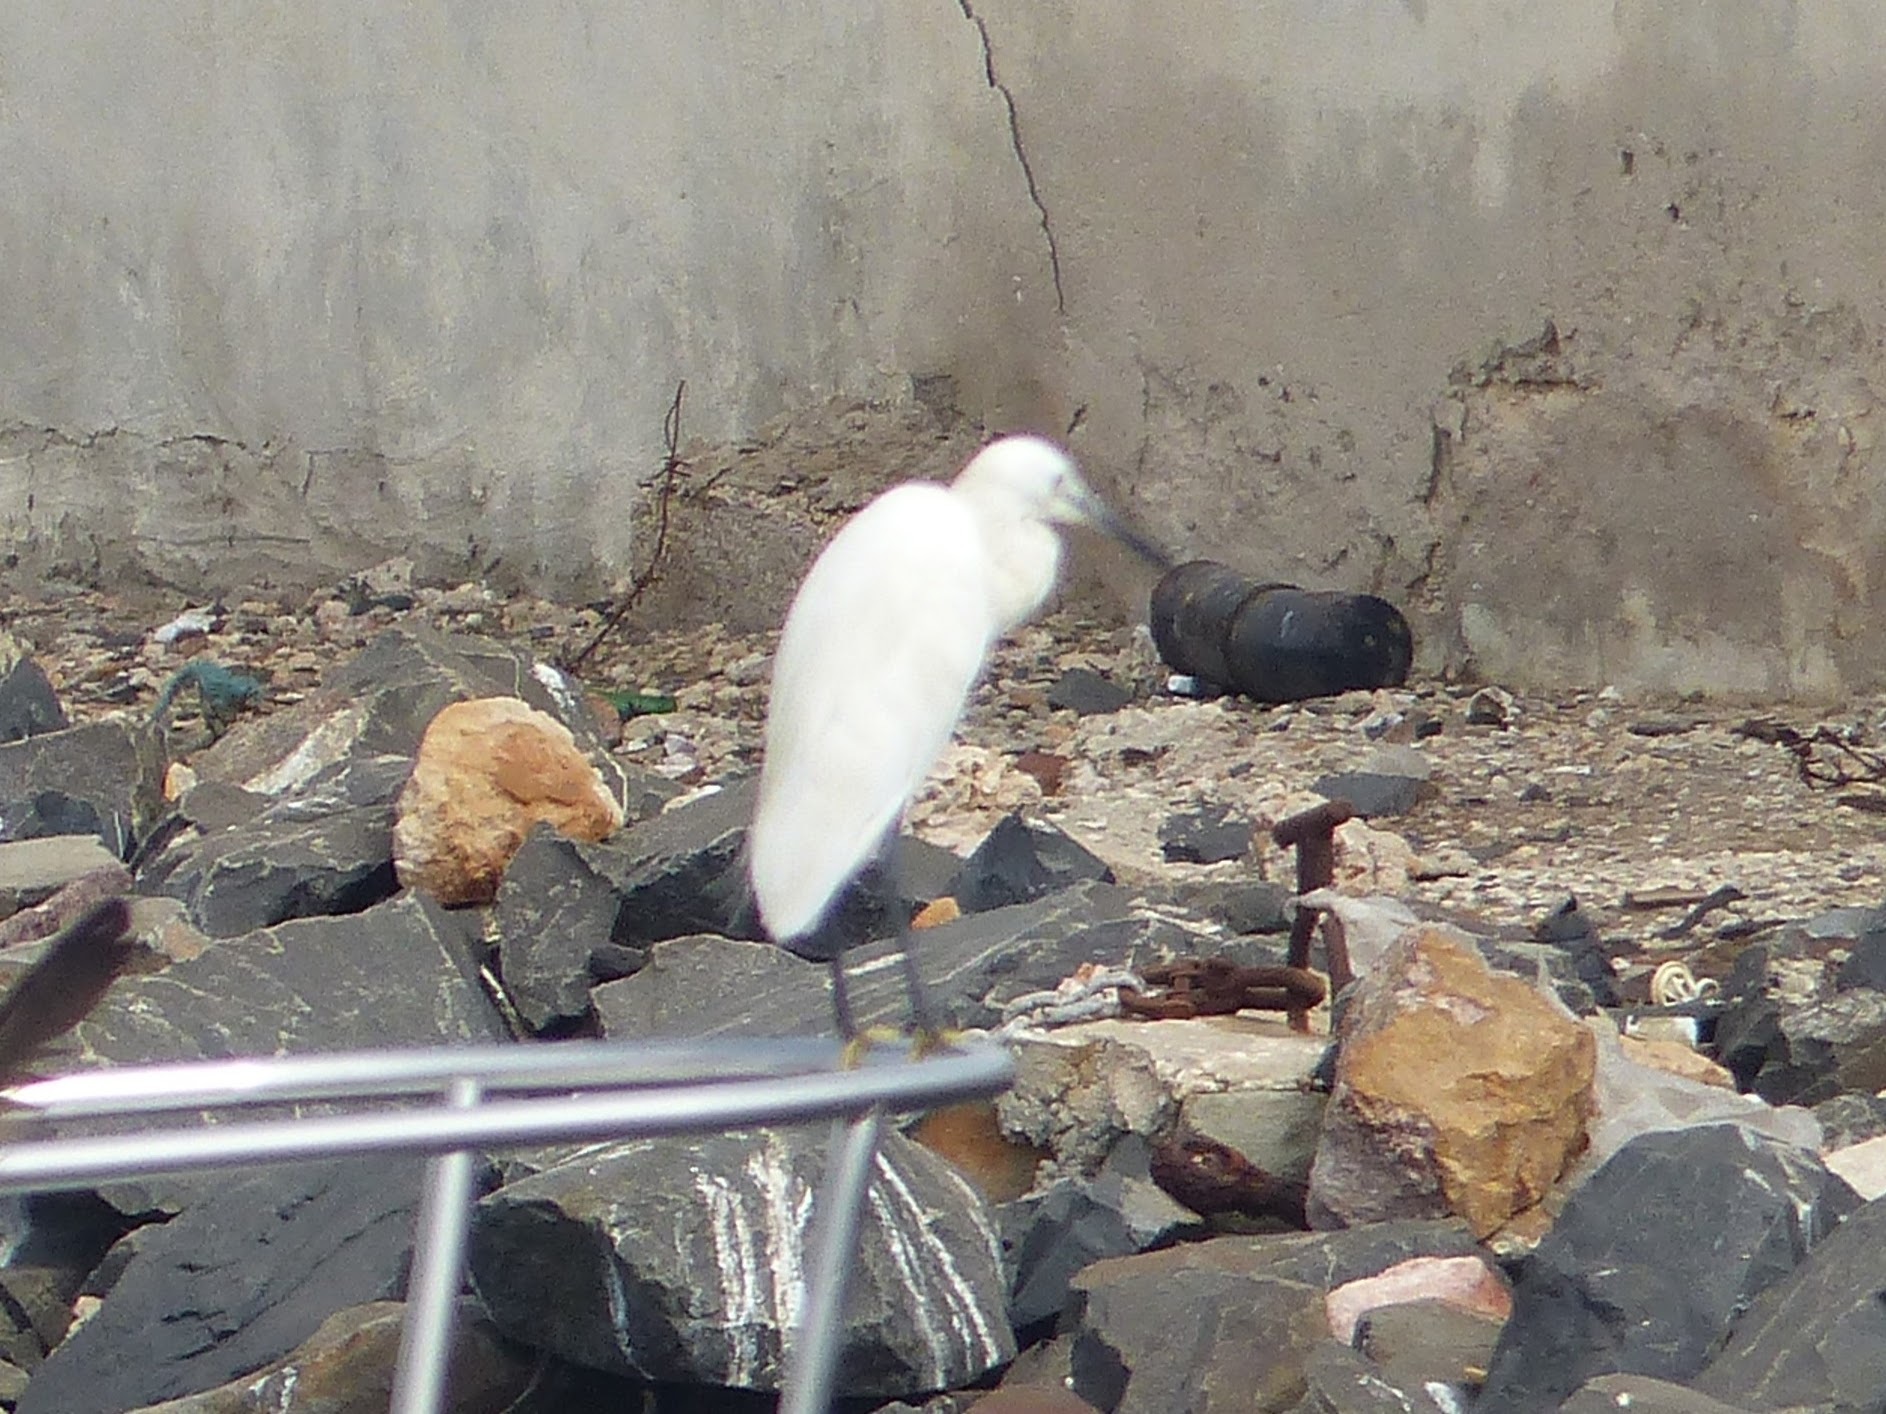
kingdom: Animalia
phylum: Chordata
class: Aves
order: Pelecaniformes
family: Ardeidae
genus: Egretta
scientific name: Egretta garzetta
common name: Little egret
